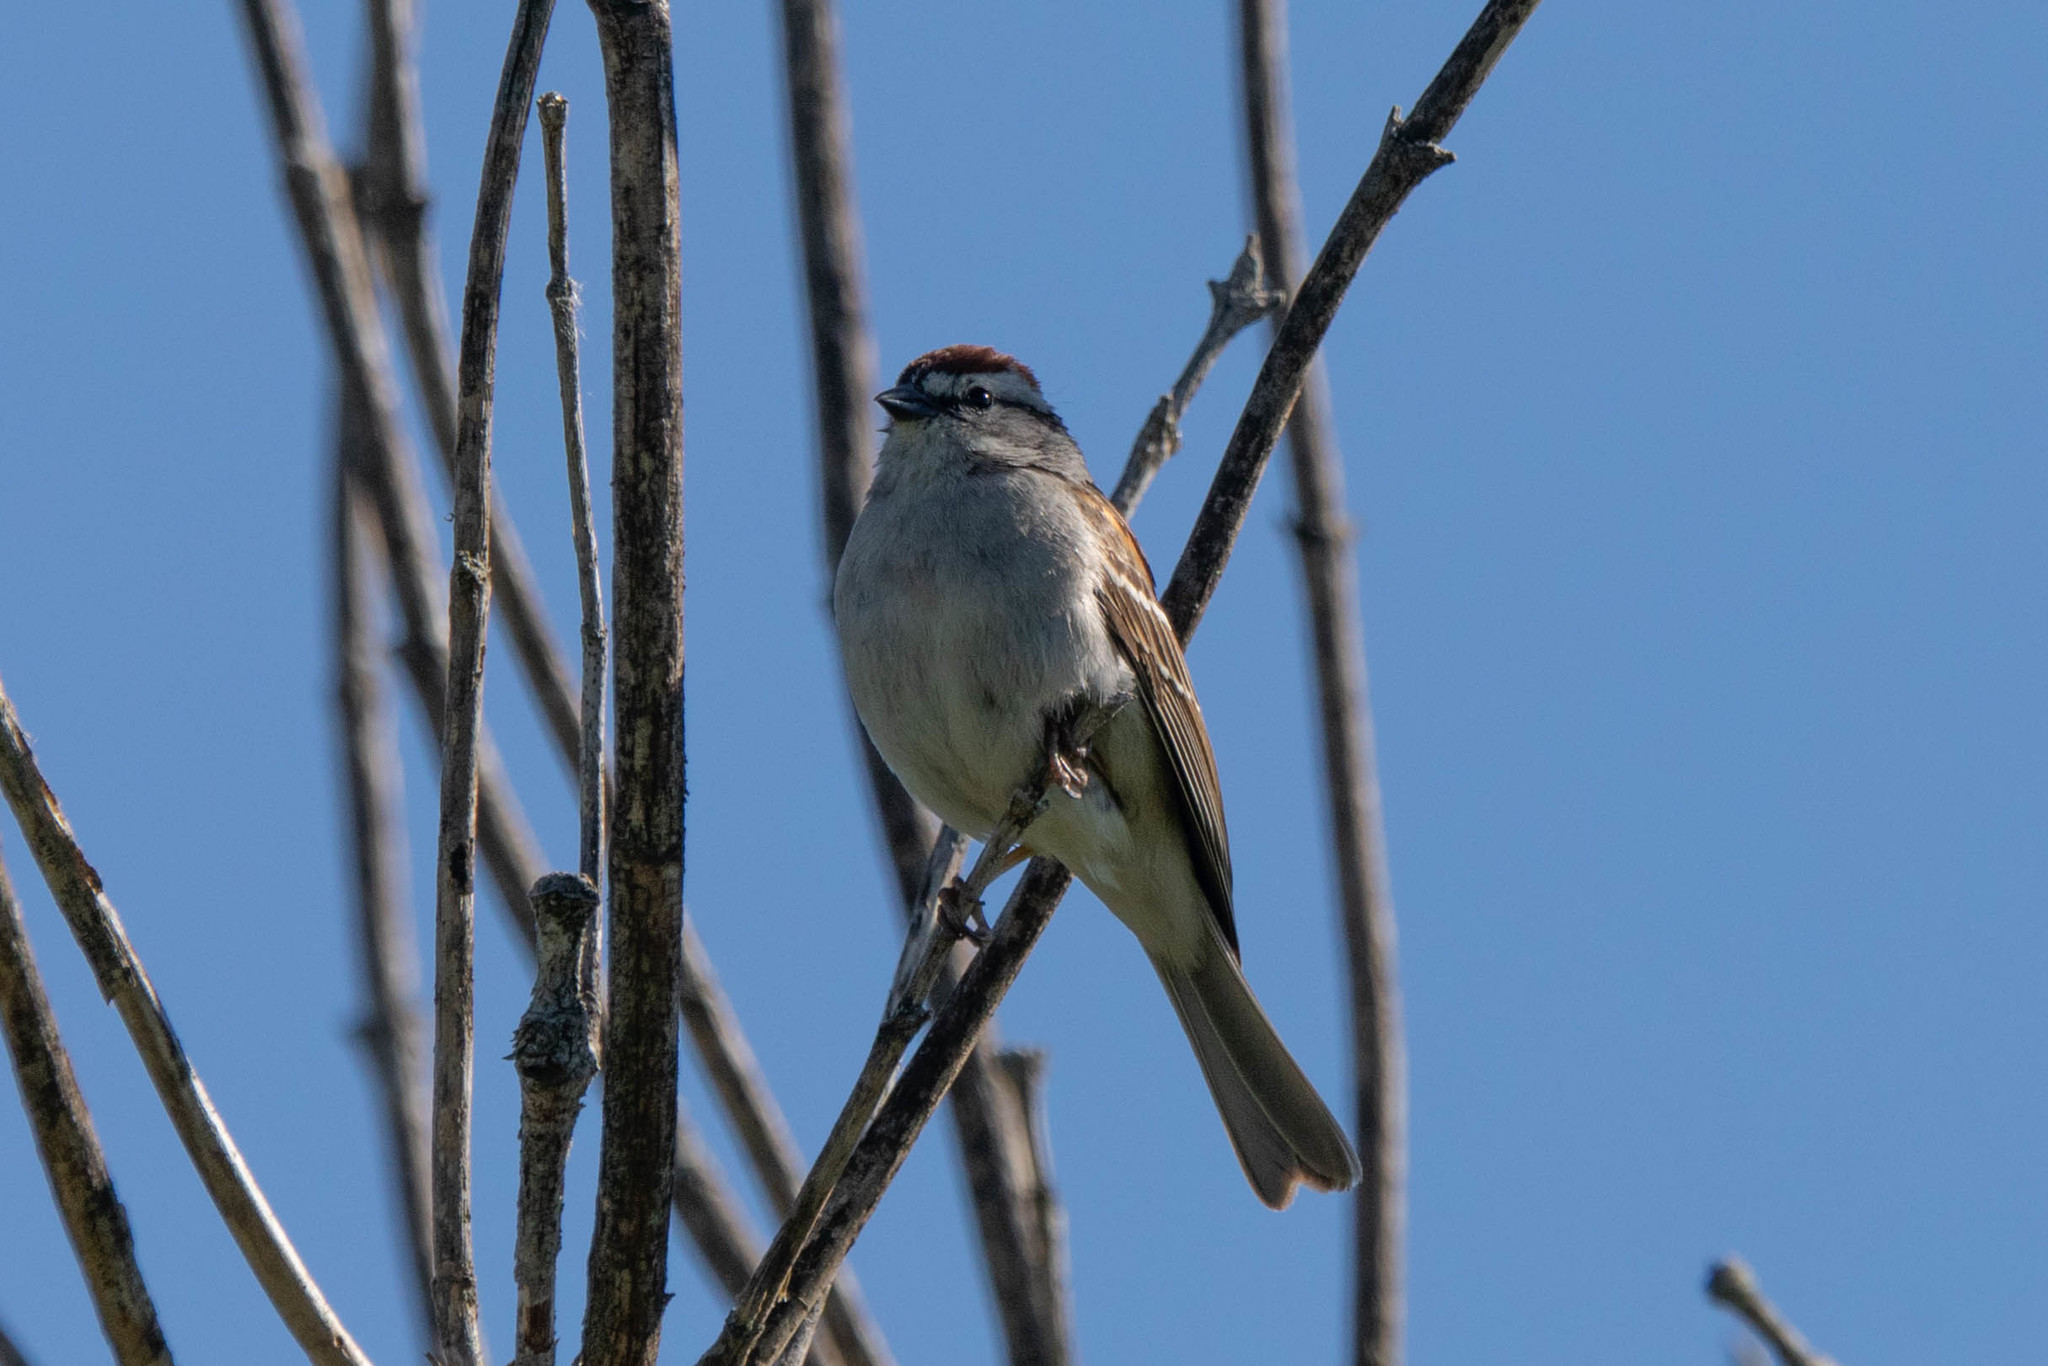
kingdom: Animalia
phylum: Chordata
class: Aves
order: Passeriformes
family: Passerellidae
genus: Spizella
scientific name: Spizella passerina
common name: Chipping sparrow
